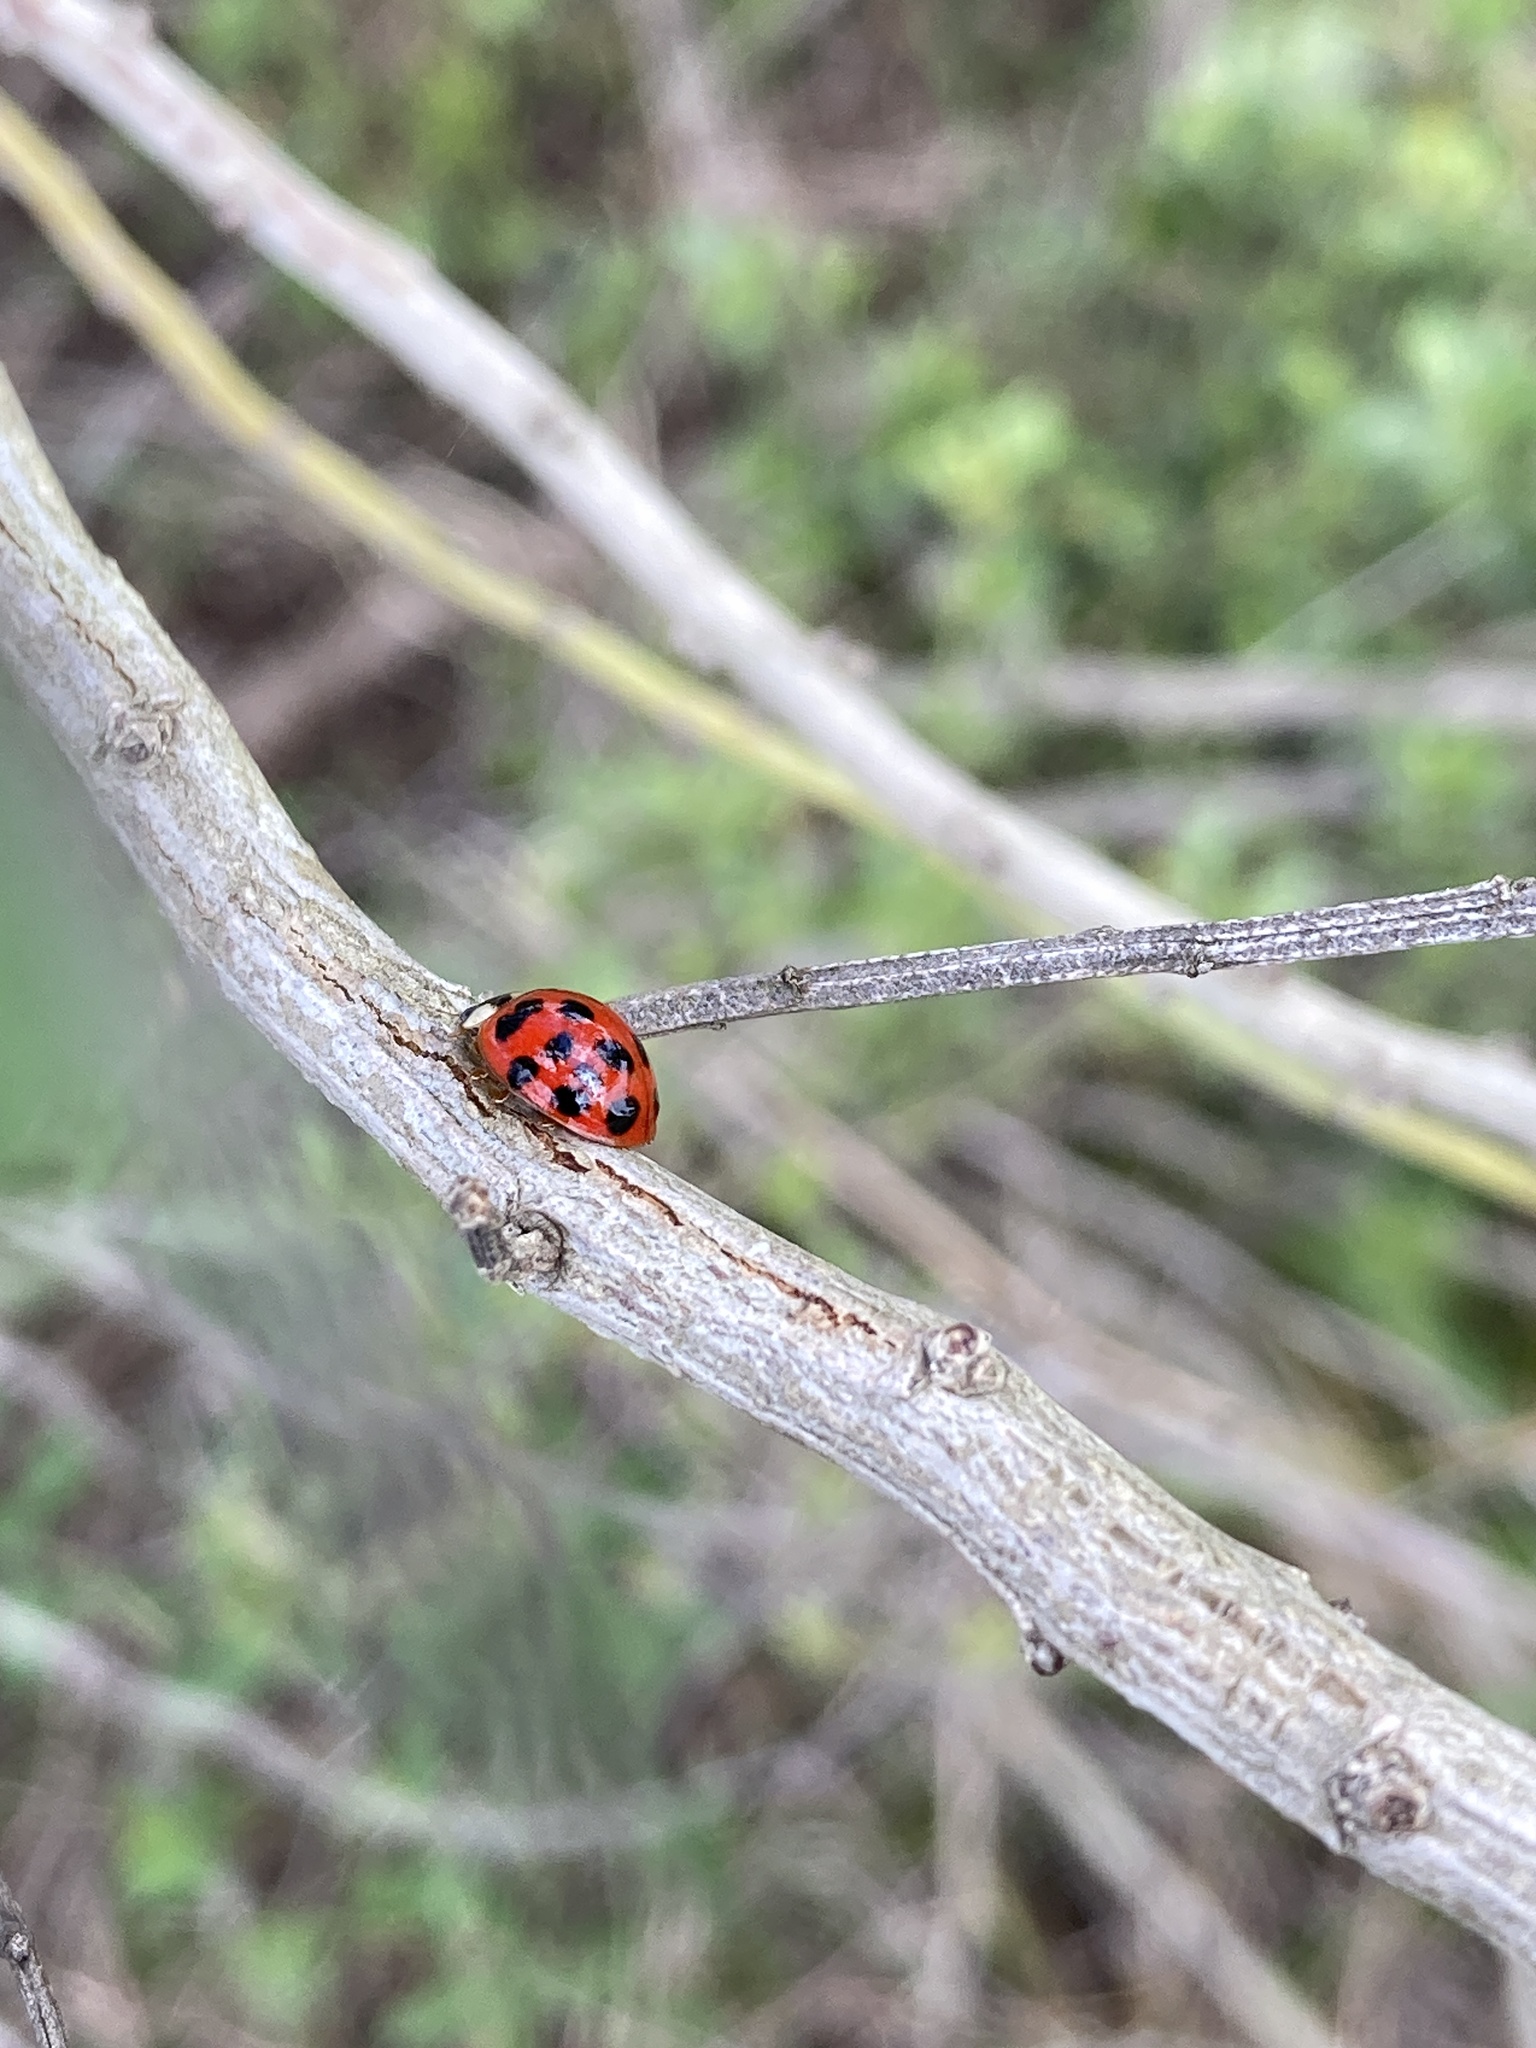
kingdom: Animalia
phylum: Arthropoda
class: Insecta
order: Coleoptera
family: Coccinellidae
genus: Harmonia
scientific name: Harmonia axyridis
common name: Harlequin ladybird
